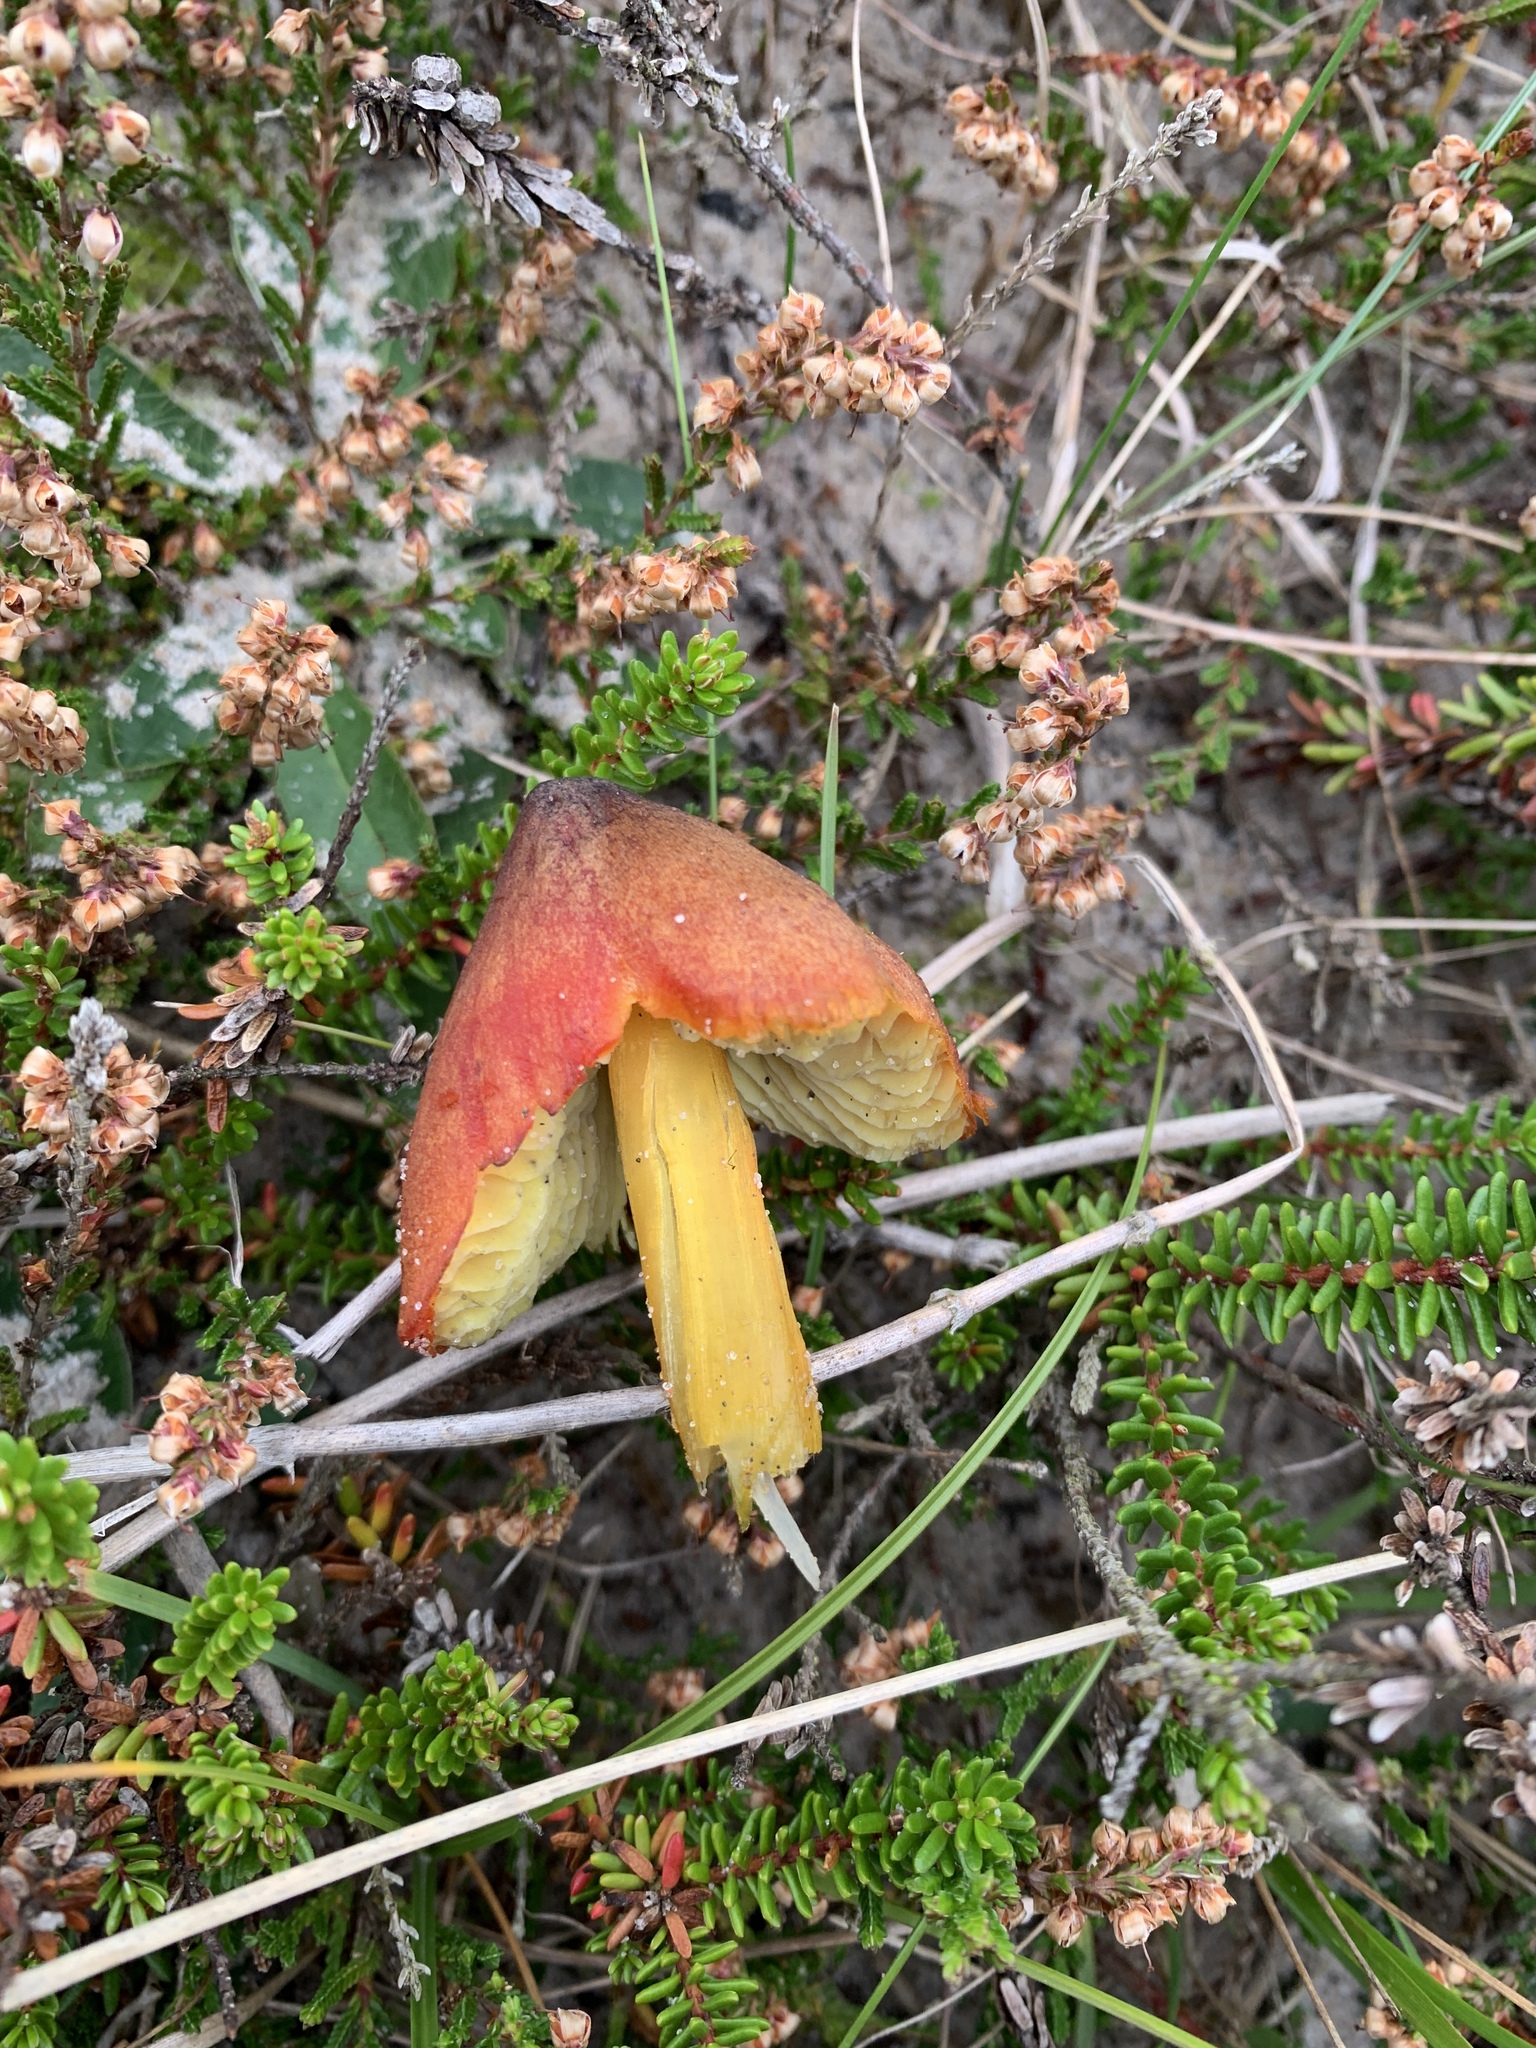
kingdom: Fungi
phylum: Basidiomycota
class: Agaricomycetes
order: Agaricales
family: Hygrophoraceae
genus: Hygrocybe
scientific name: Hygrocybe conica
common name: Blackening wax-cap
